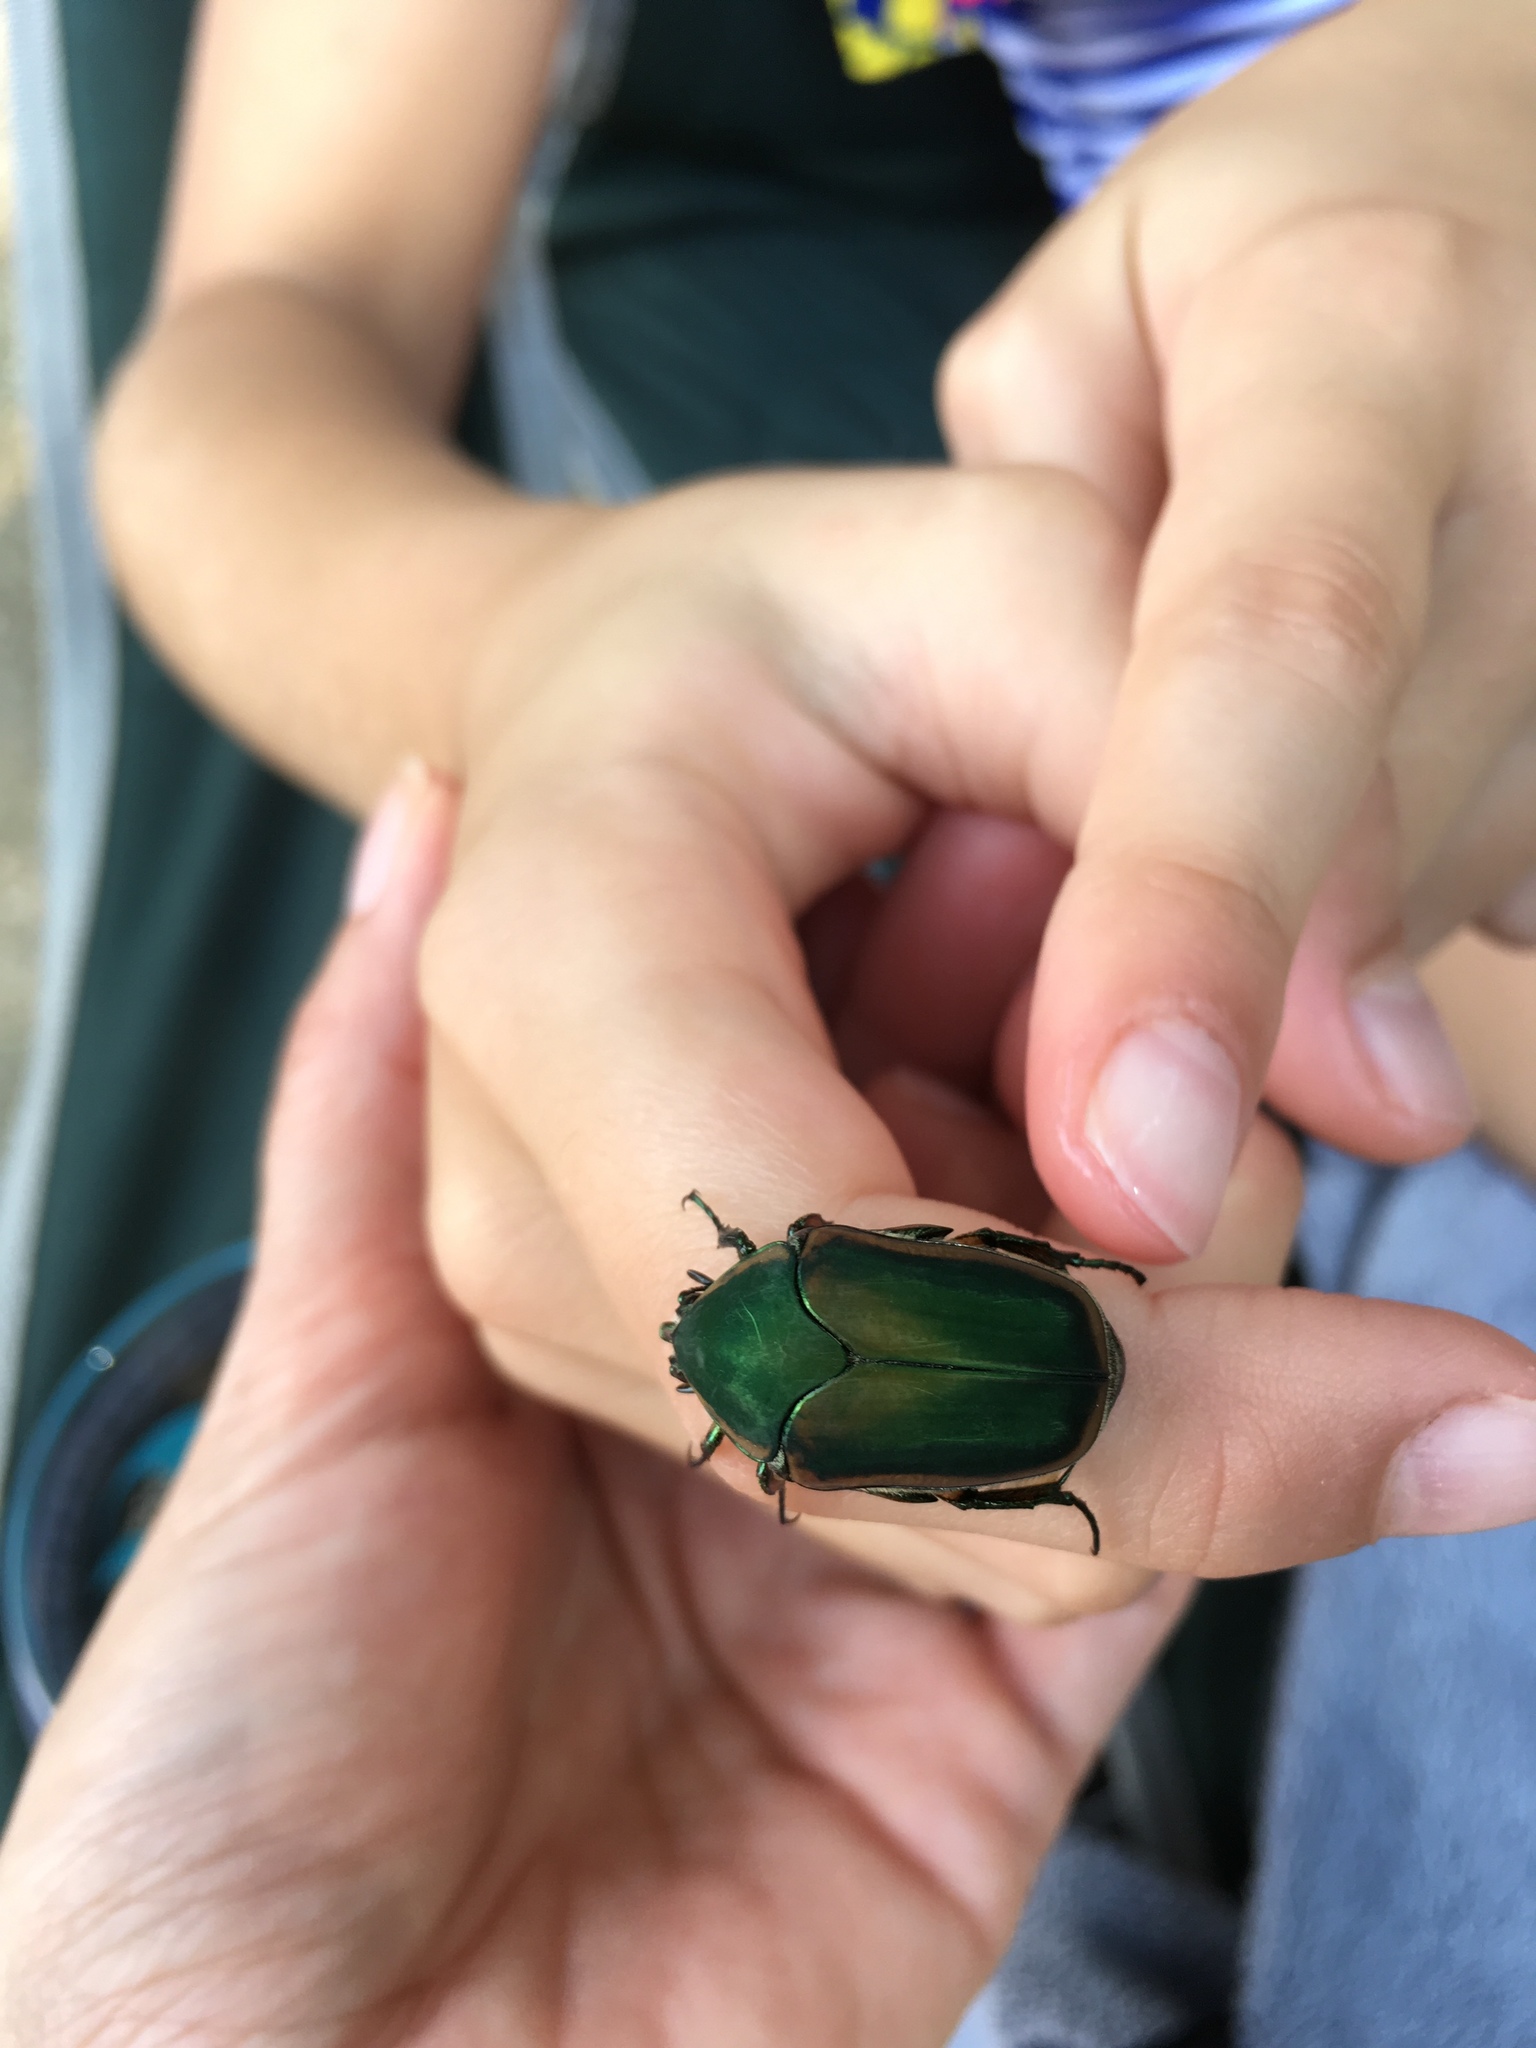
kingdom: Animalia
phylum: Arthropoda
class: Insecta
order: Coleoptera
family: Scarabaeidae
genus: Cotinis
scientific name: Cotinis nitida
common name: Common green june beetle
